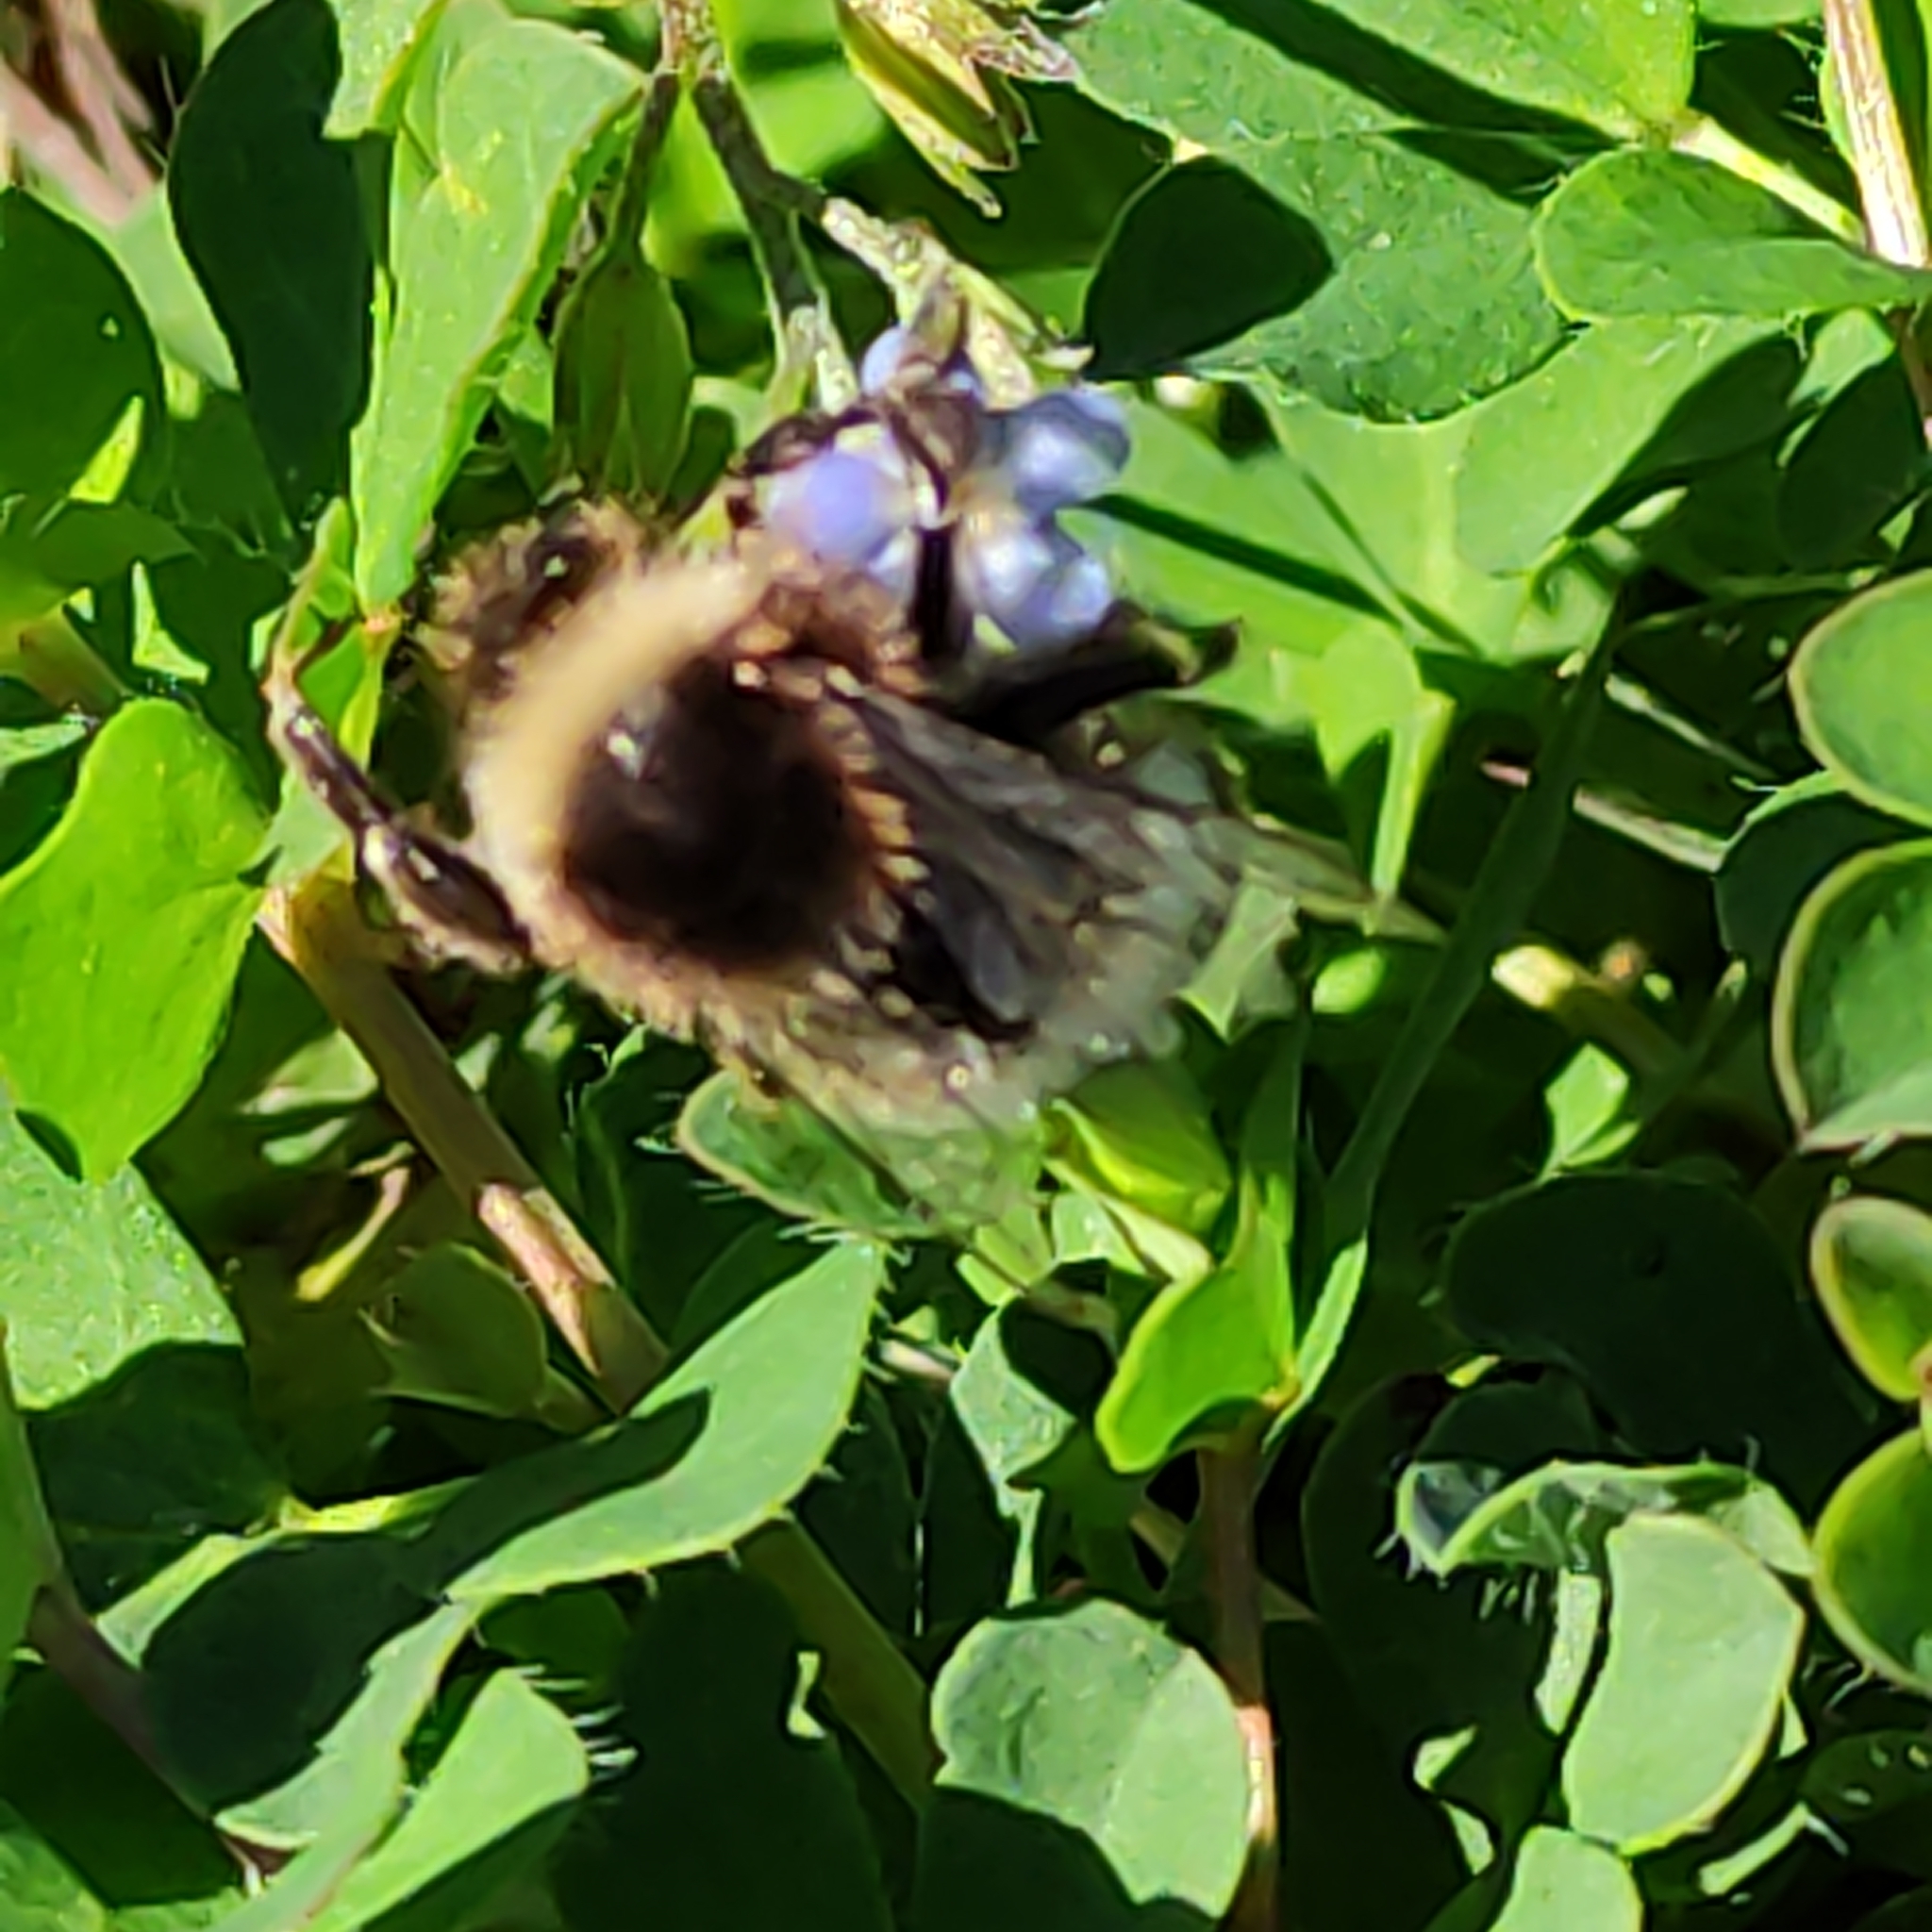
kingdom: Animalia
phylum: Arthropoda
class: Insecta
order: Hymenoptera
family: Apidae
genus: Bombus
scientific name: Bombus terrestris
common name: Buff-tailed bumblebee
